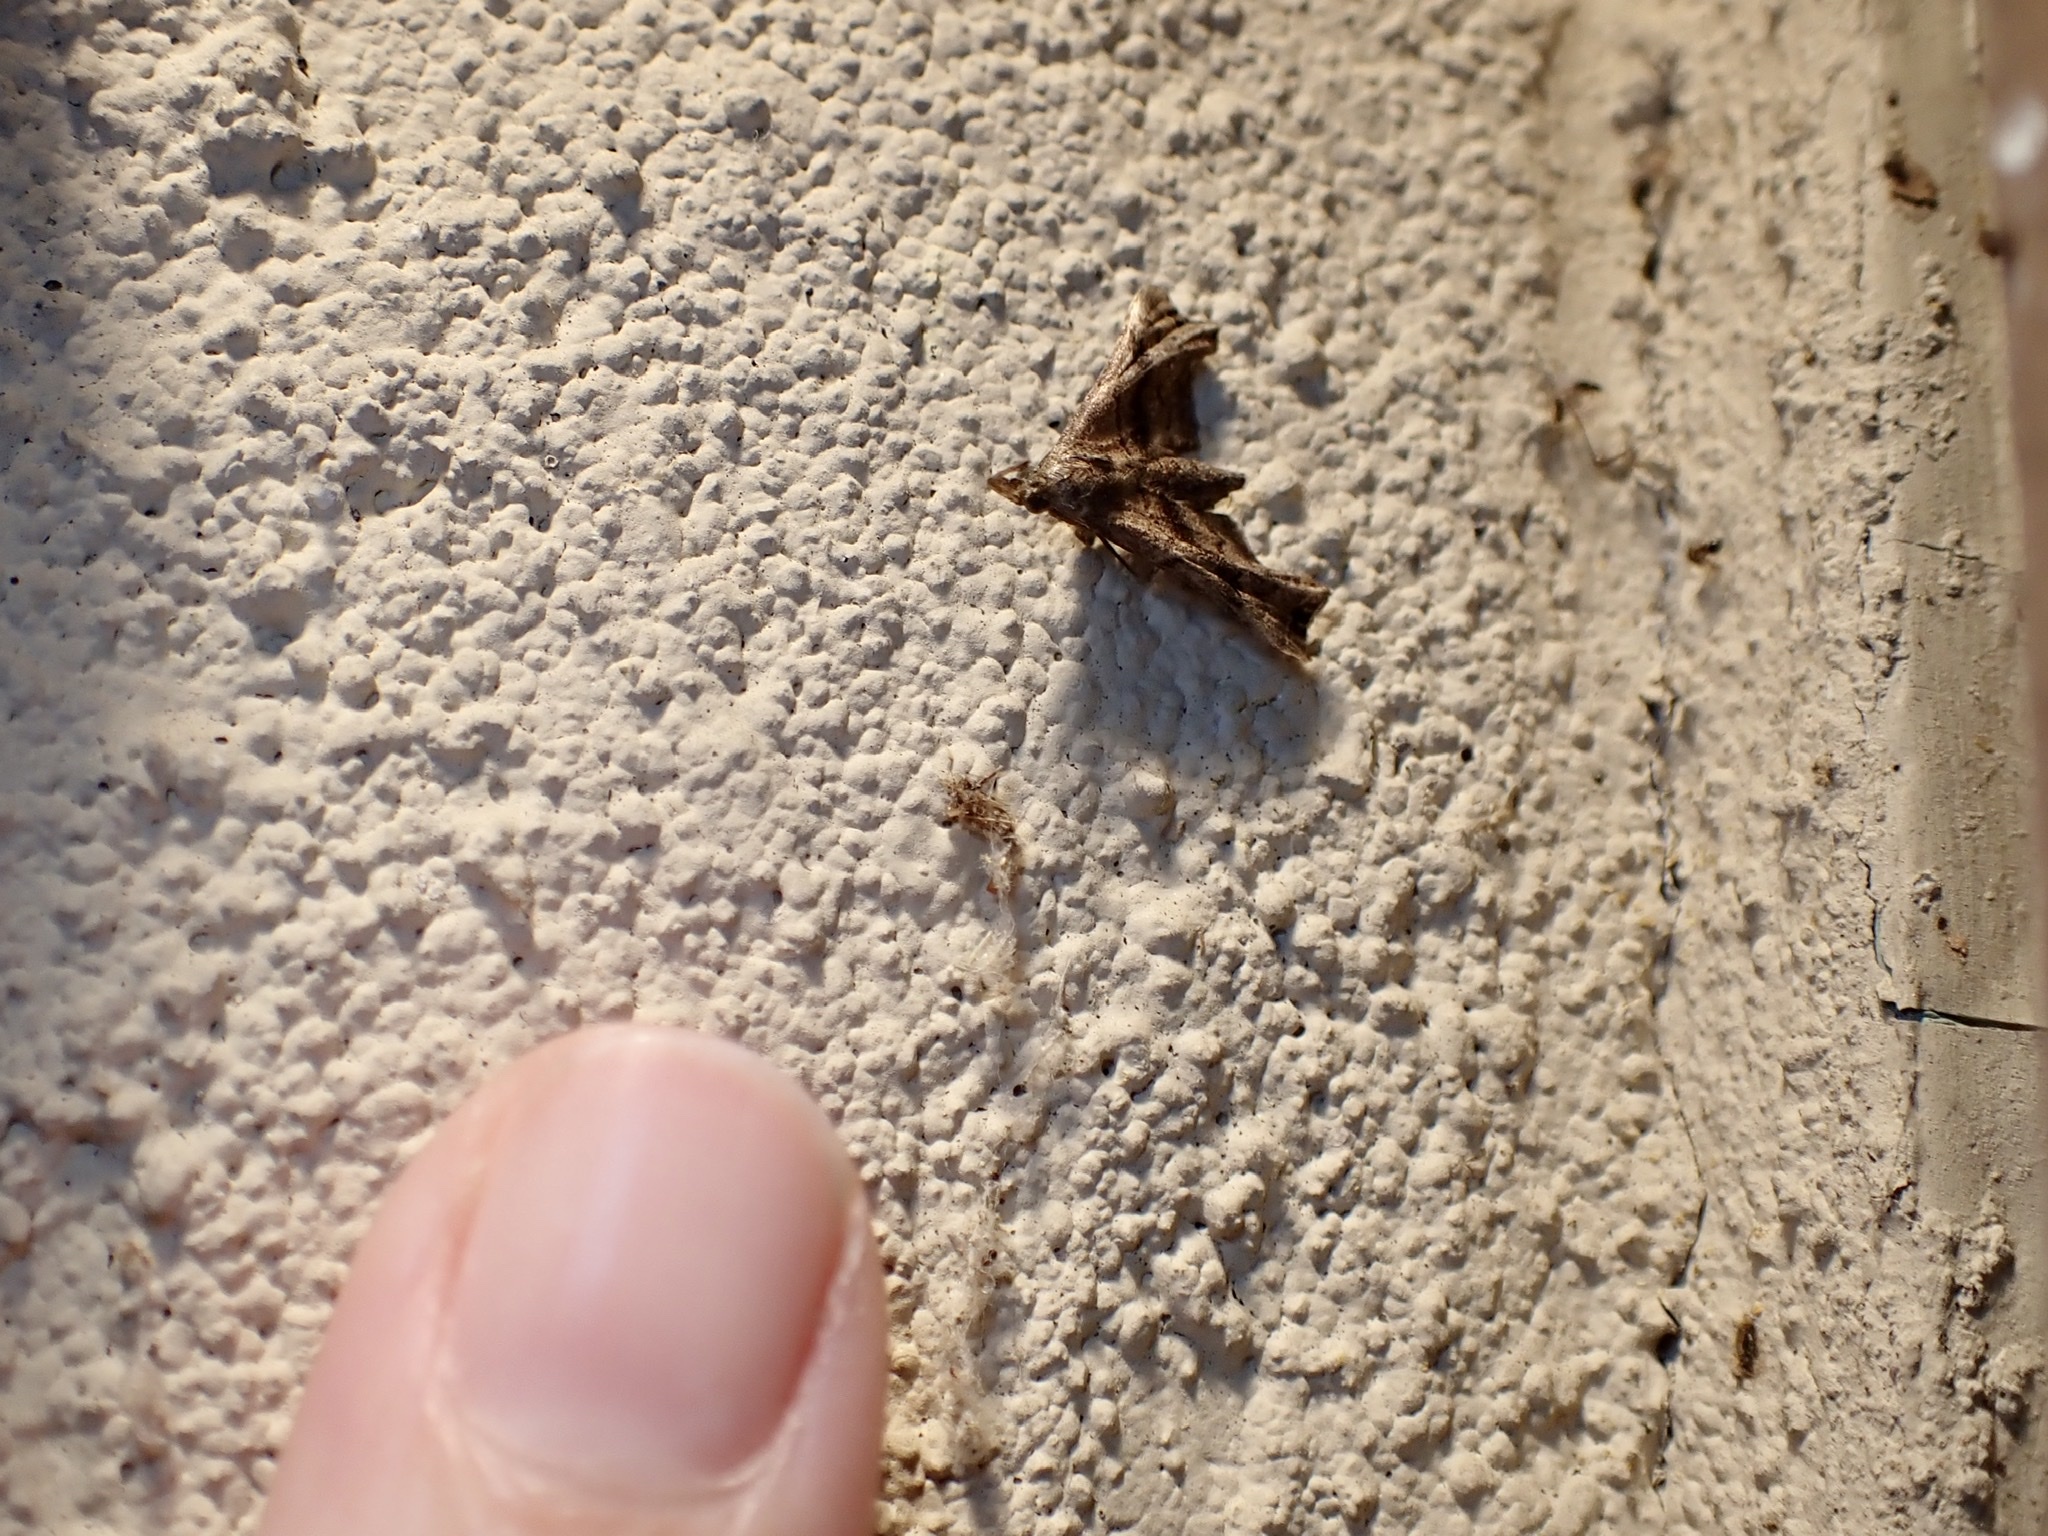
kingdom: Animalia
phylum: Arthropoda
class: Insecta
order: Lepidoptera
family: Erebidae
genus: Palthis
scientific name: Palthis asopialis
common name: Faint-spotted palthis moth
